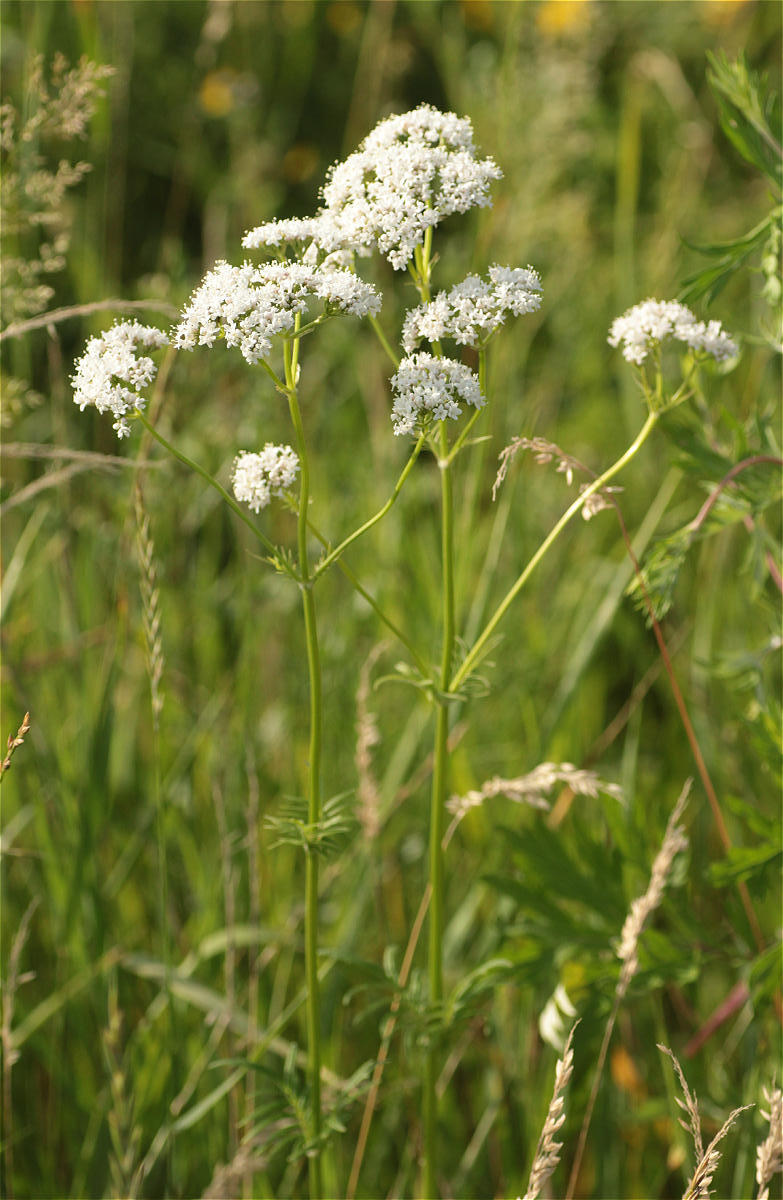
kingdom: Plantae
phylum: Tracheophyta
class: Magnoliopsida
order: Dipsacales
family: Caprifoliaceae
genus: Valeriana
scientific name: Valeriana officinalis
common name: Common valerian
